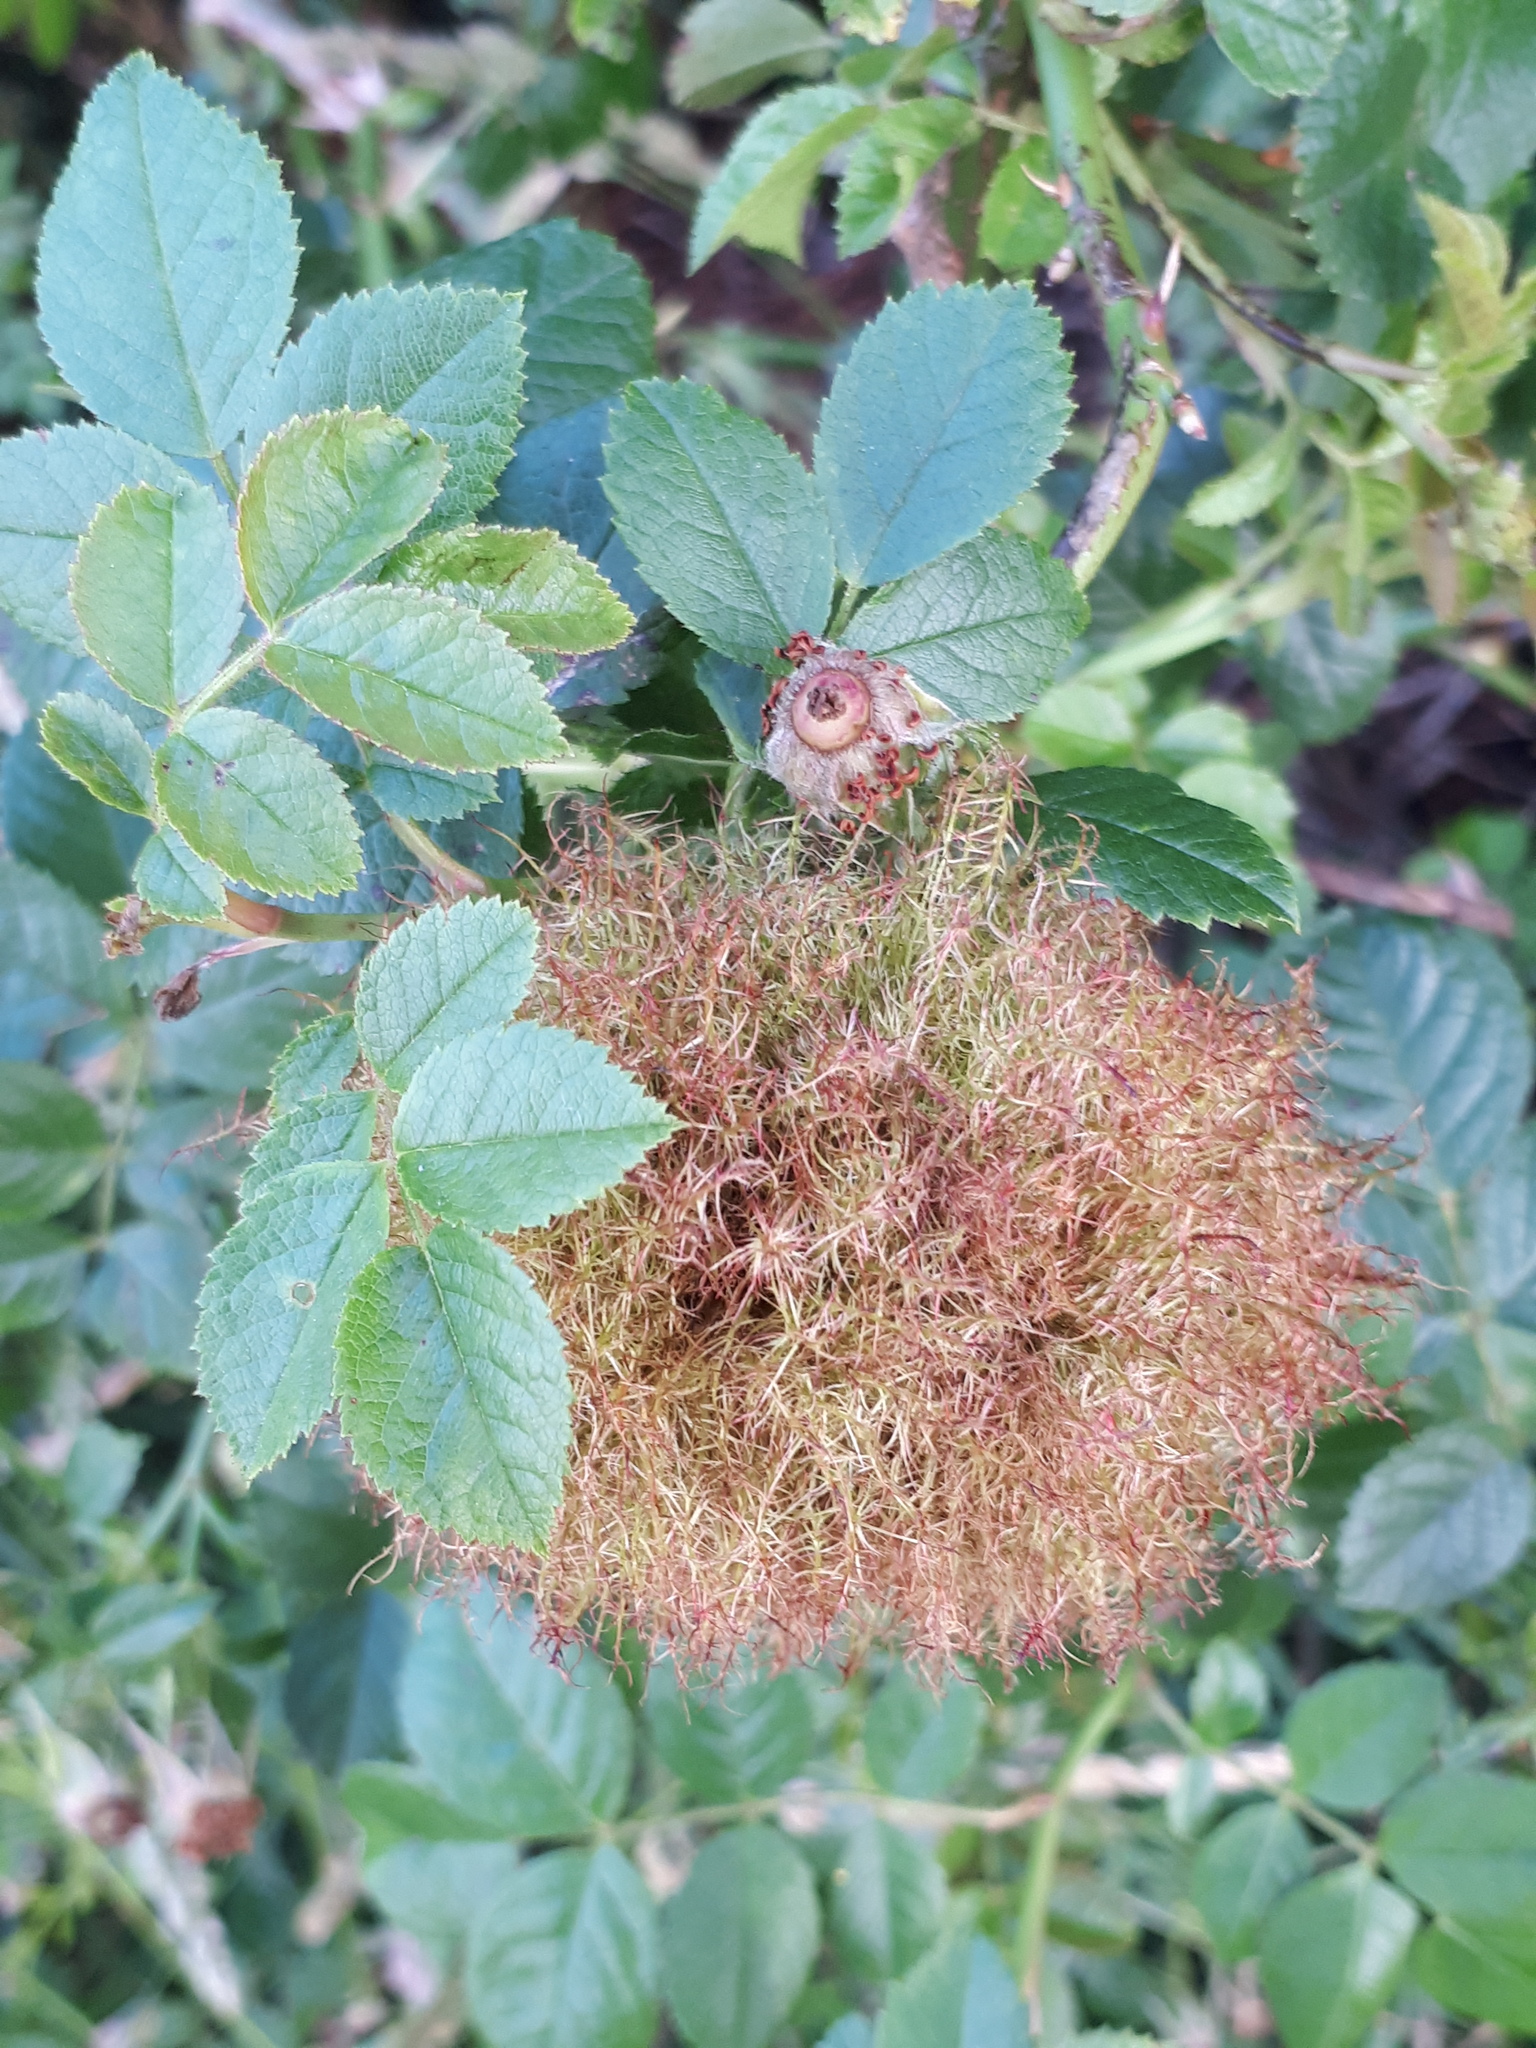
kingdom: Animalia
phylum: Arthropoda
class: Insecta
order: Hymenoptera
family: Cynipidae
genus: Diplolepis
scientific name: Diplolepis rosae
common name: Bedeguar gall
